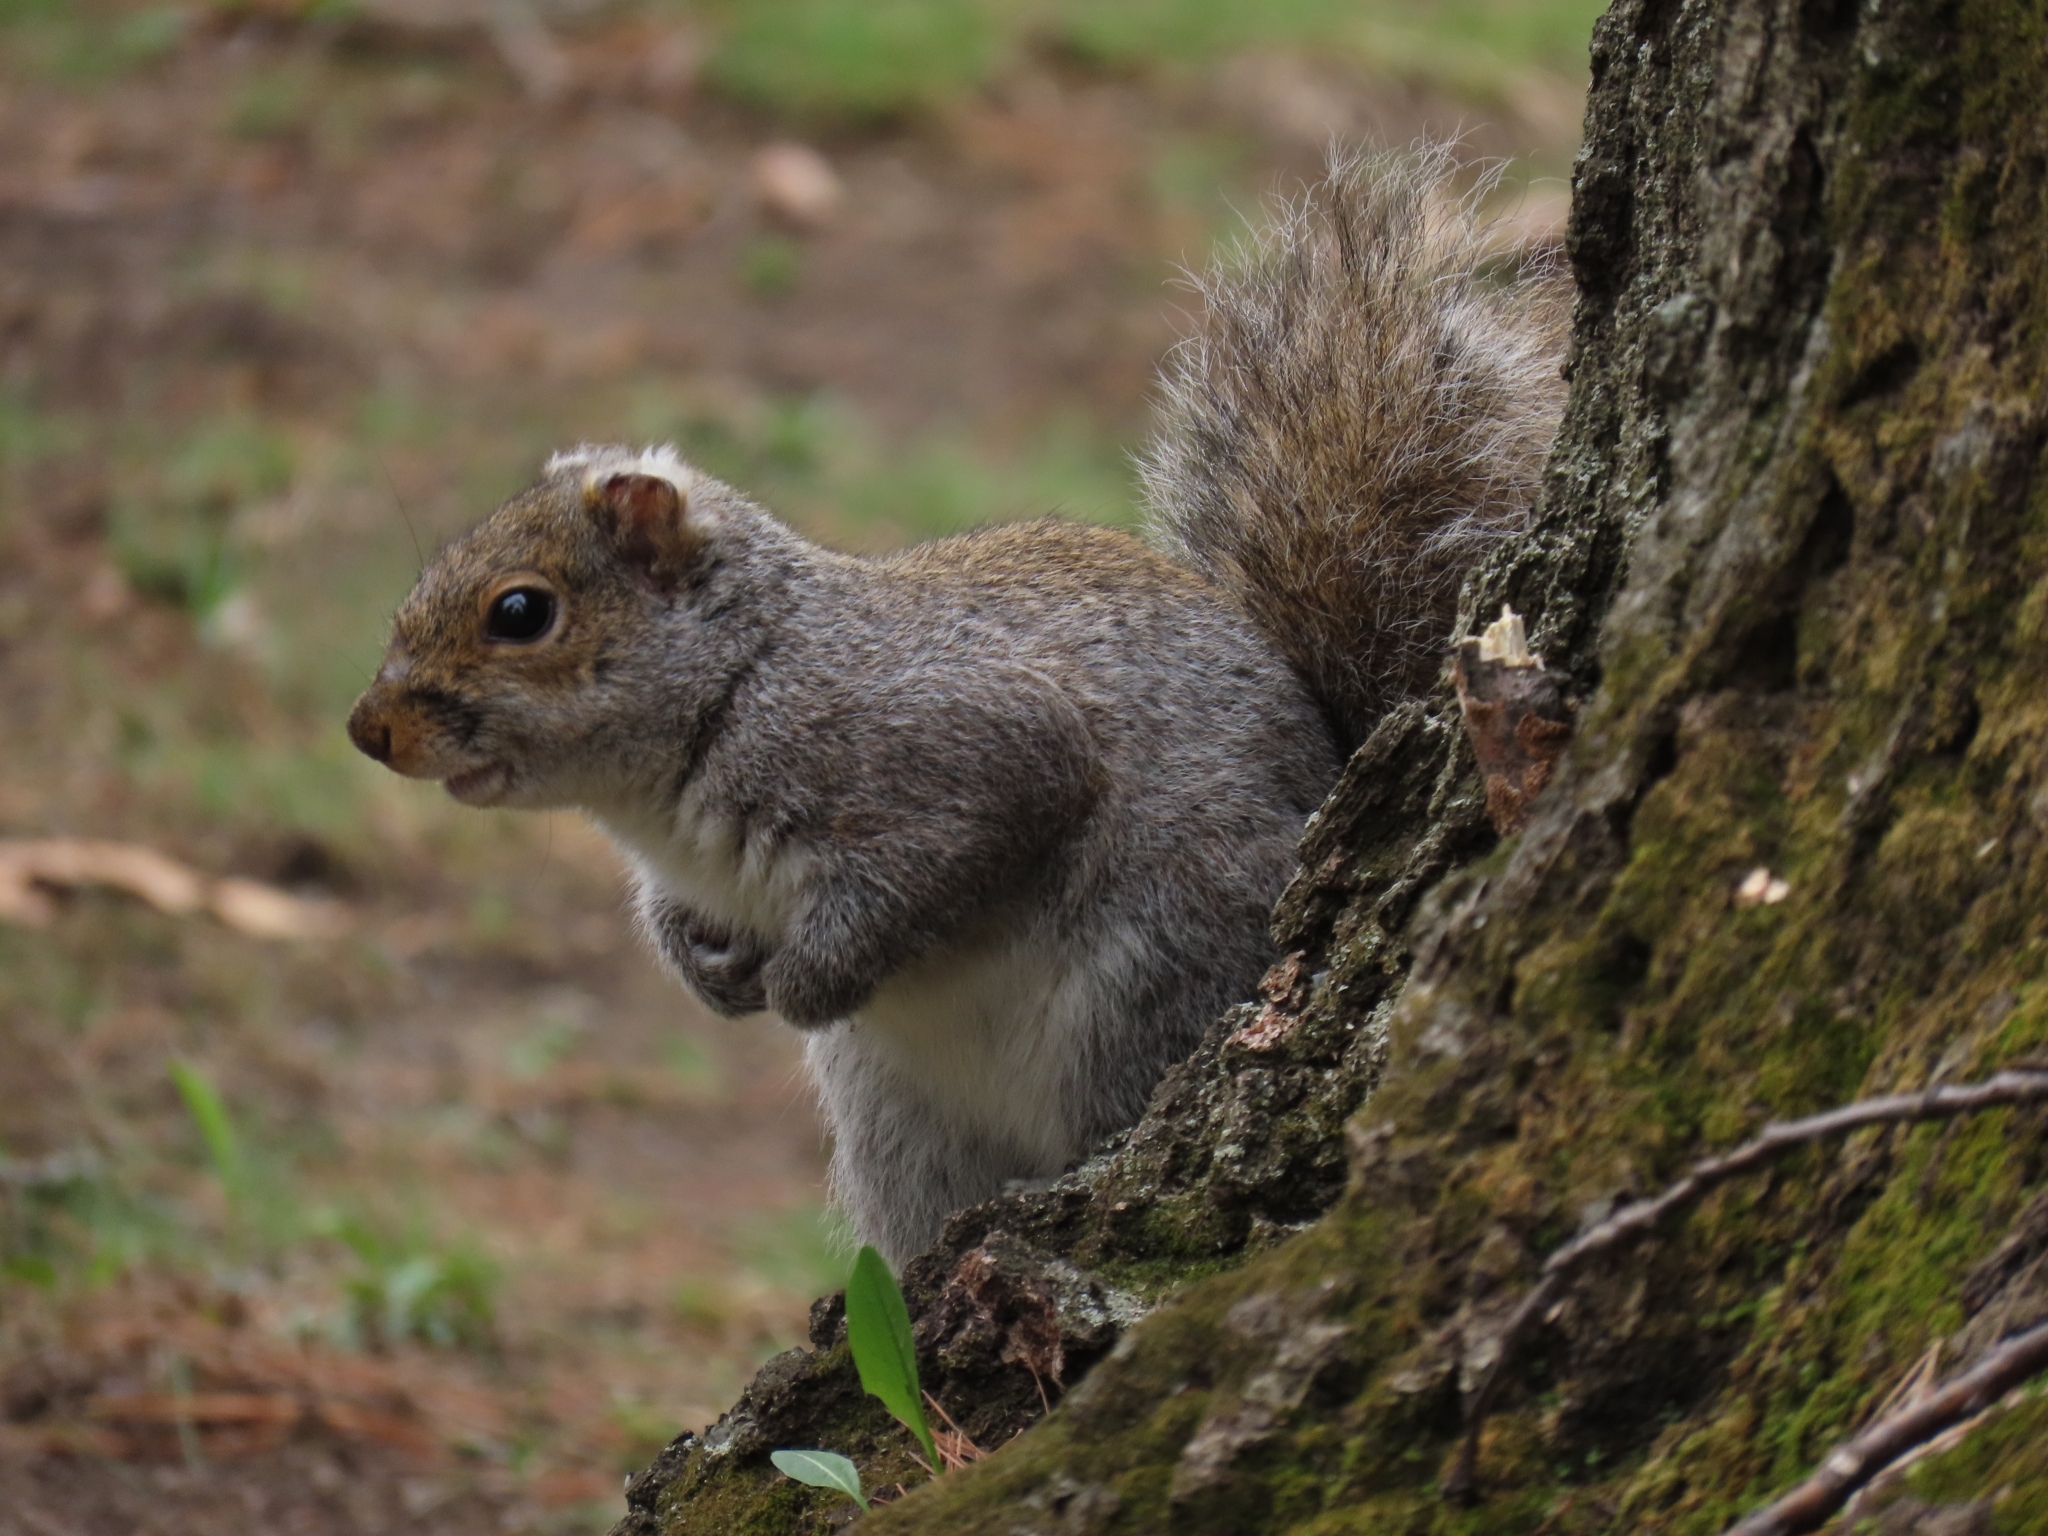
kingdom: Animalia
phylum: Chordata
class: Mammalia
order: Rodentia
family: Sciuridae
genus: Sciurus
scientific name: Sciurus carolinensis
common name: Eastern gray squirrel
